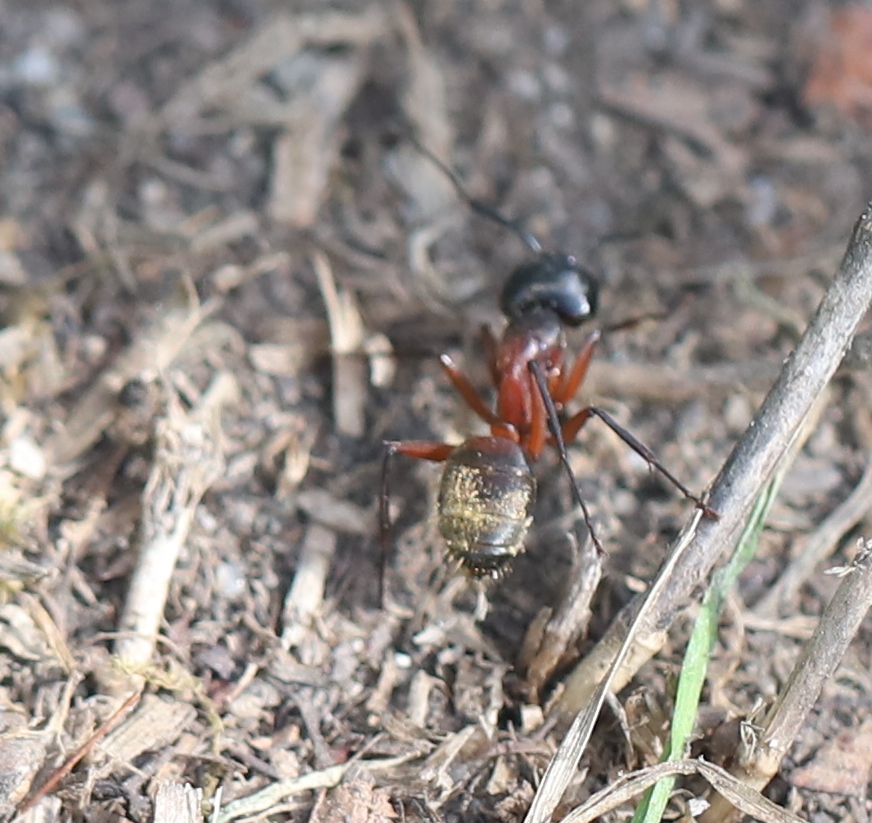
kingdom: Animalia
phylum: Arthropoda
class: Insecta
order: Hymenoptera
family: Formicidae
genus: Camponotus
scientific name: Camponotus chromaiodes
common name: Red carpenter ant
